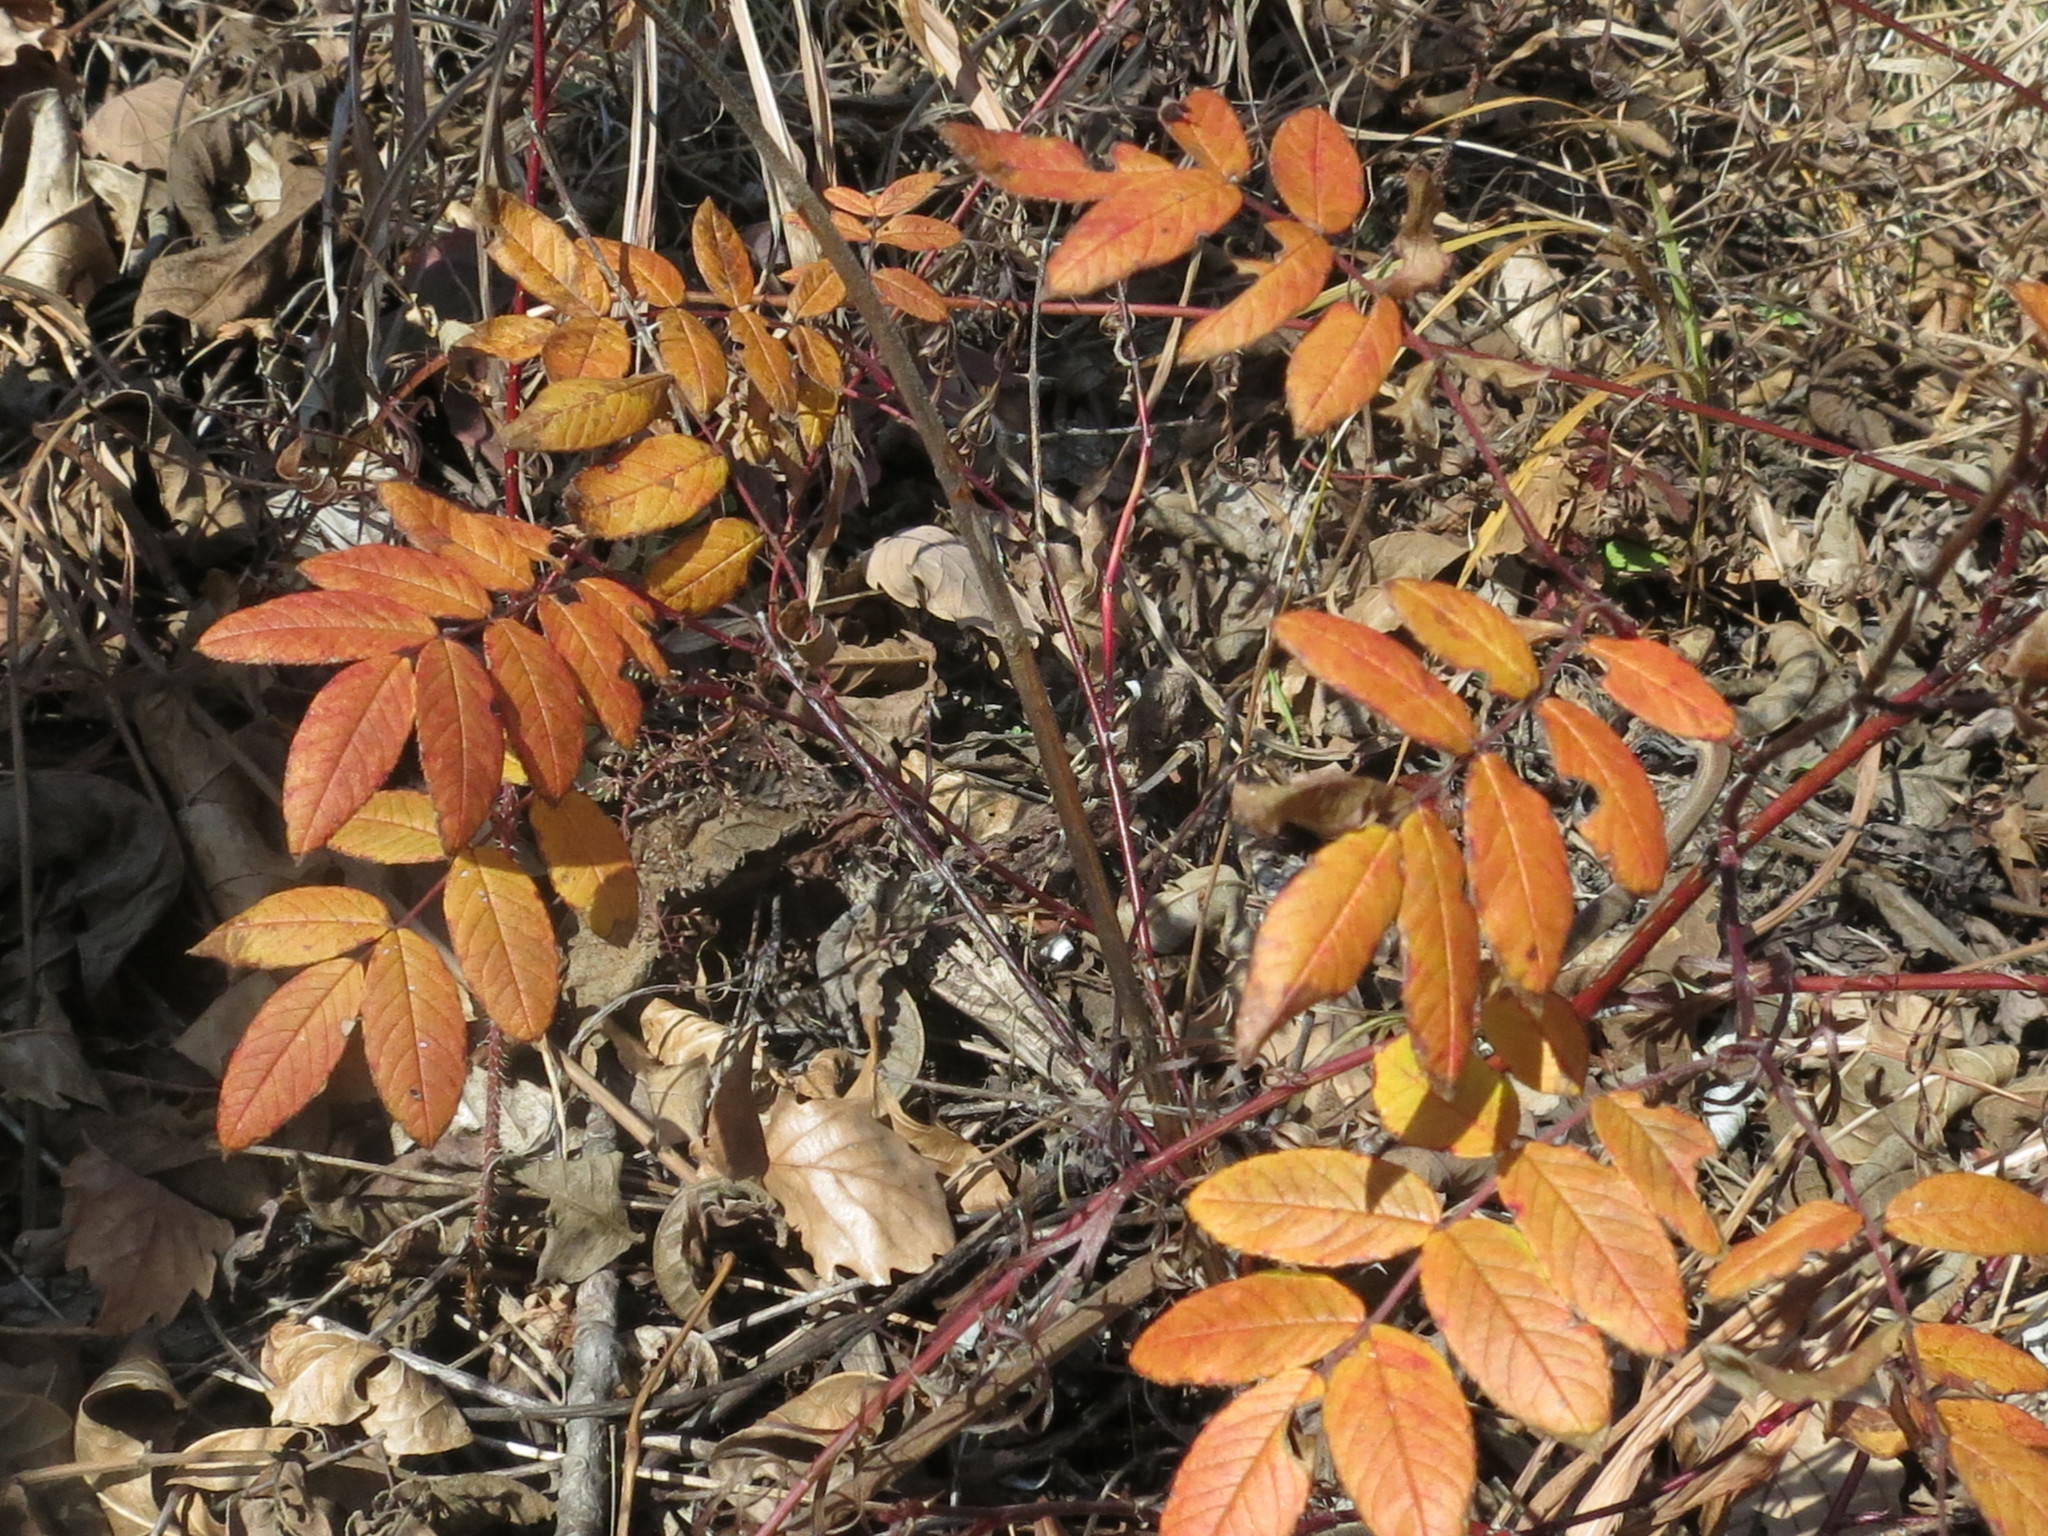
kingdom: Plantae
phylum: Tracheophyta
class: Magnoliopsida
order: Rosales
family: Rosaceae
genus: Rosa
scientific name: Rosa davurica
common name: Amur rose
